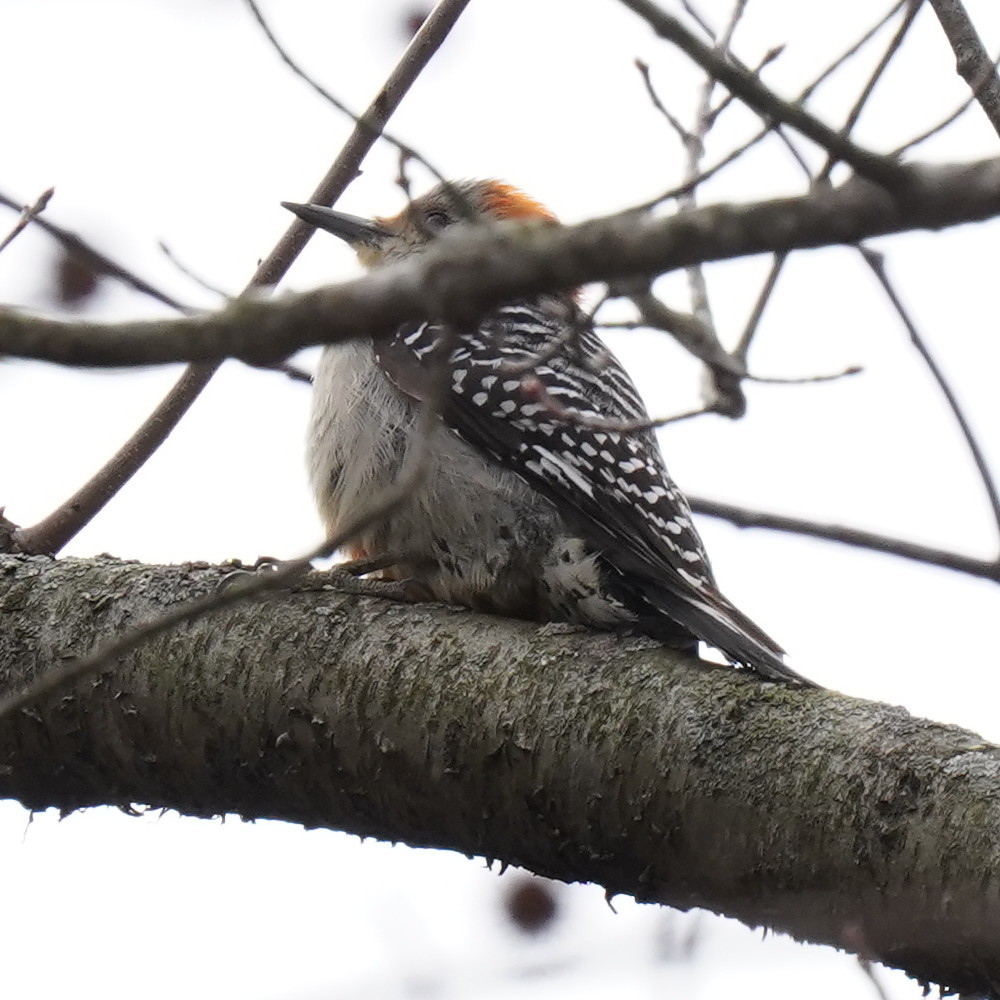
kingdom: Animalia
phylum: Chordata
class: Aves
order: Piciformes
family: Picidae
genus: Melanerpes
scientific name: Melanerpes carolinus
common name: Red-bellied woodpecker
